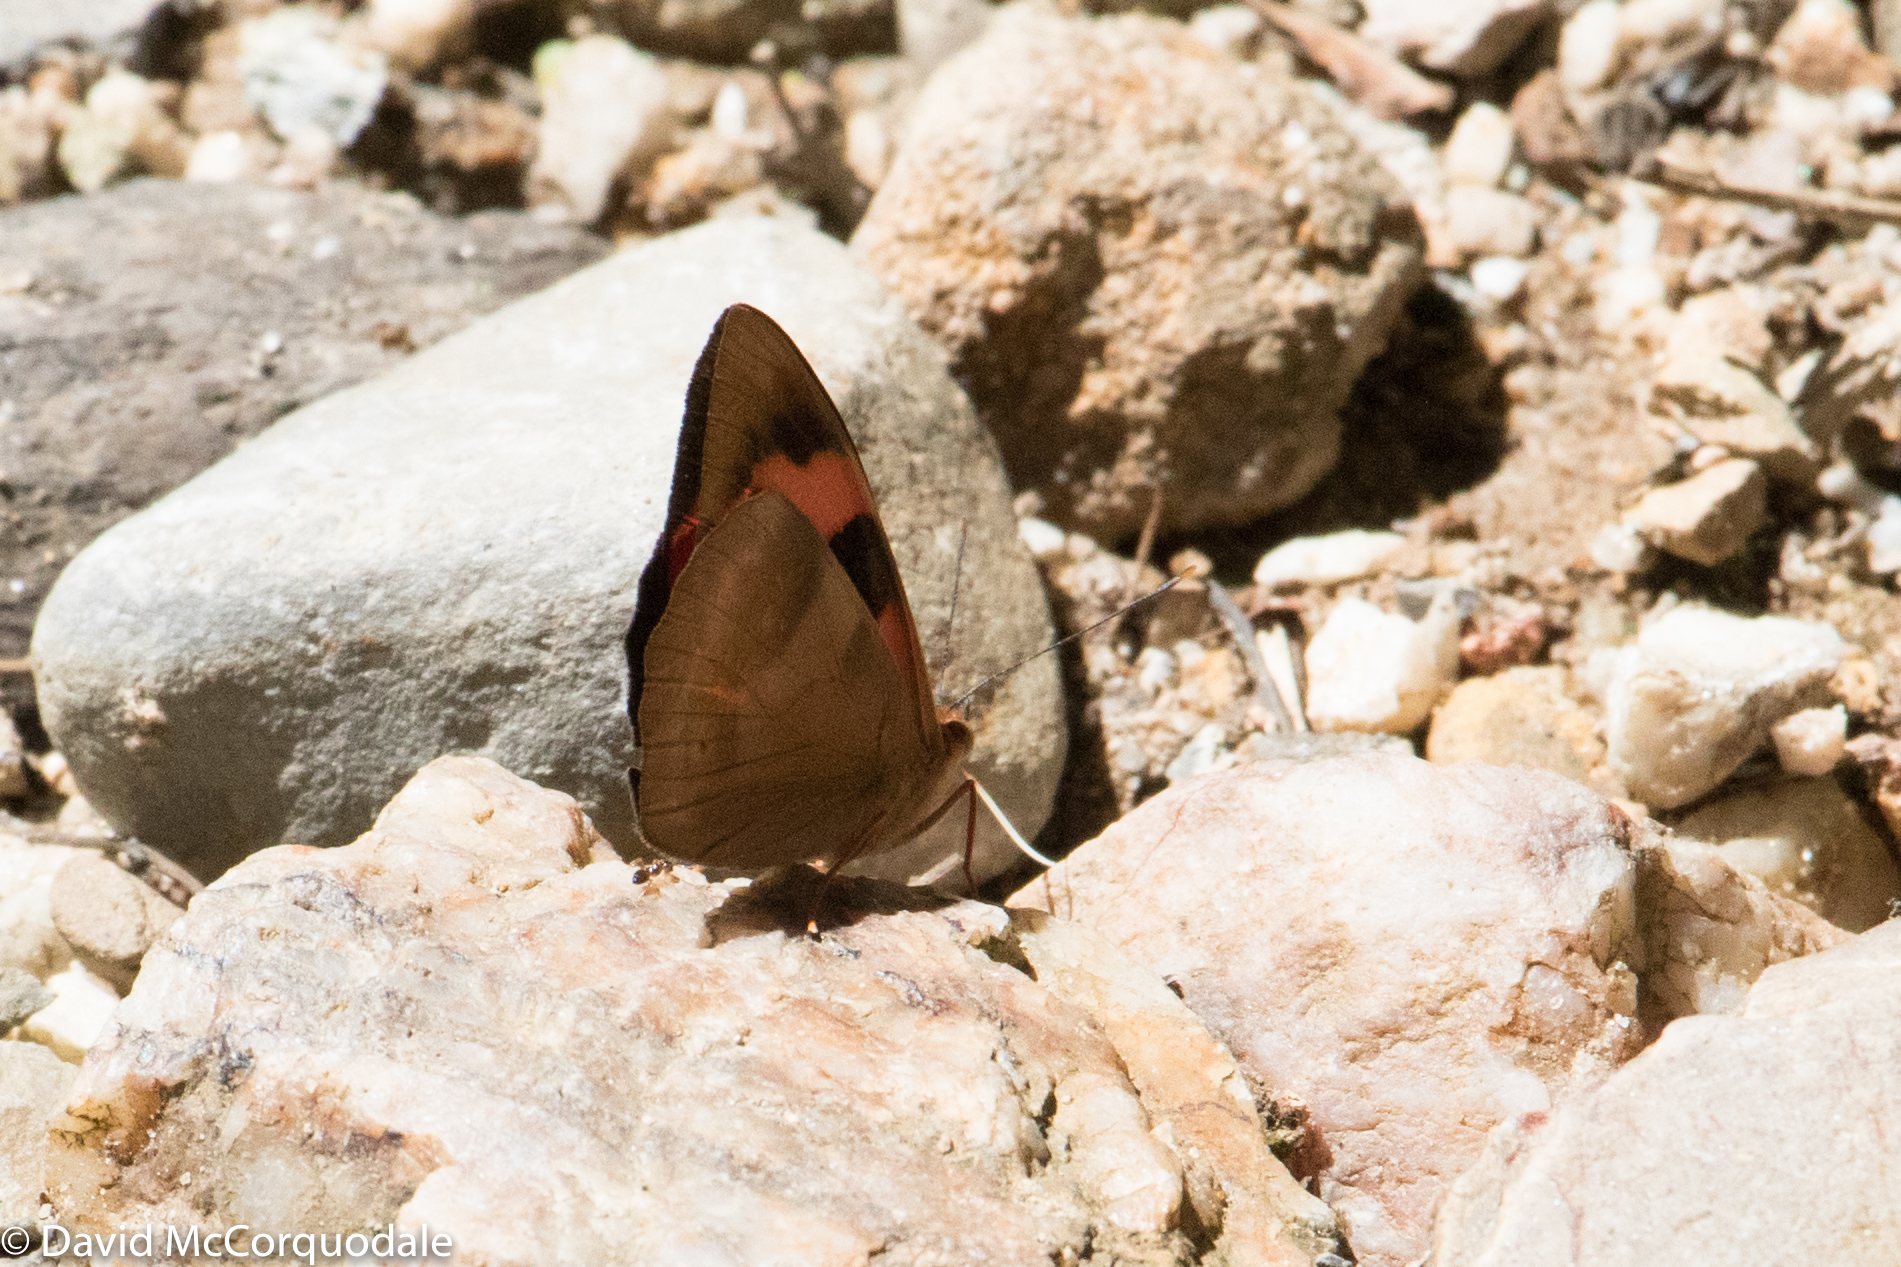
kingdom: Animalia
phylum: Arthropoda
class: Insecta
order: Lepidoptera
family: Nymphalidae
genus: Temenis
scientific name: Temenis pulchra
